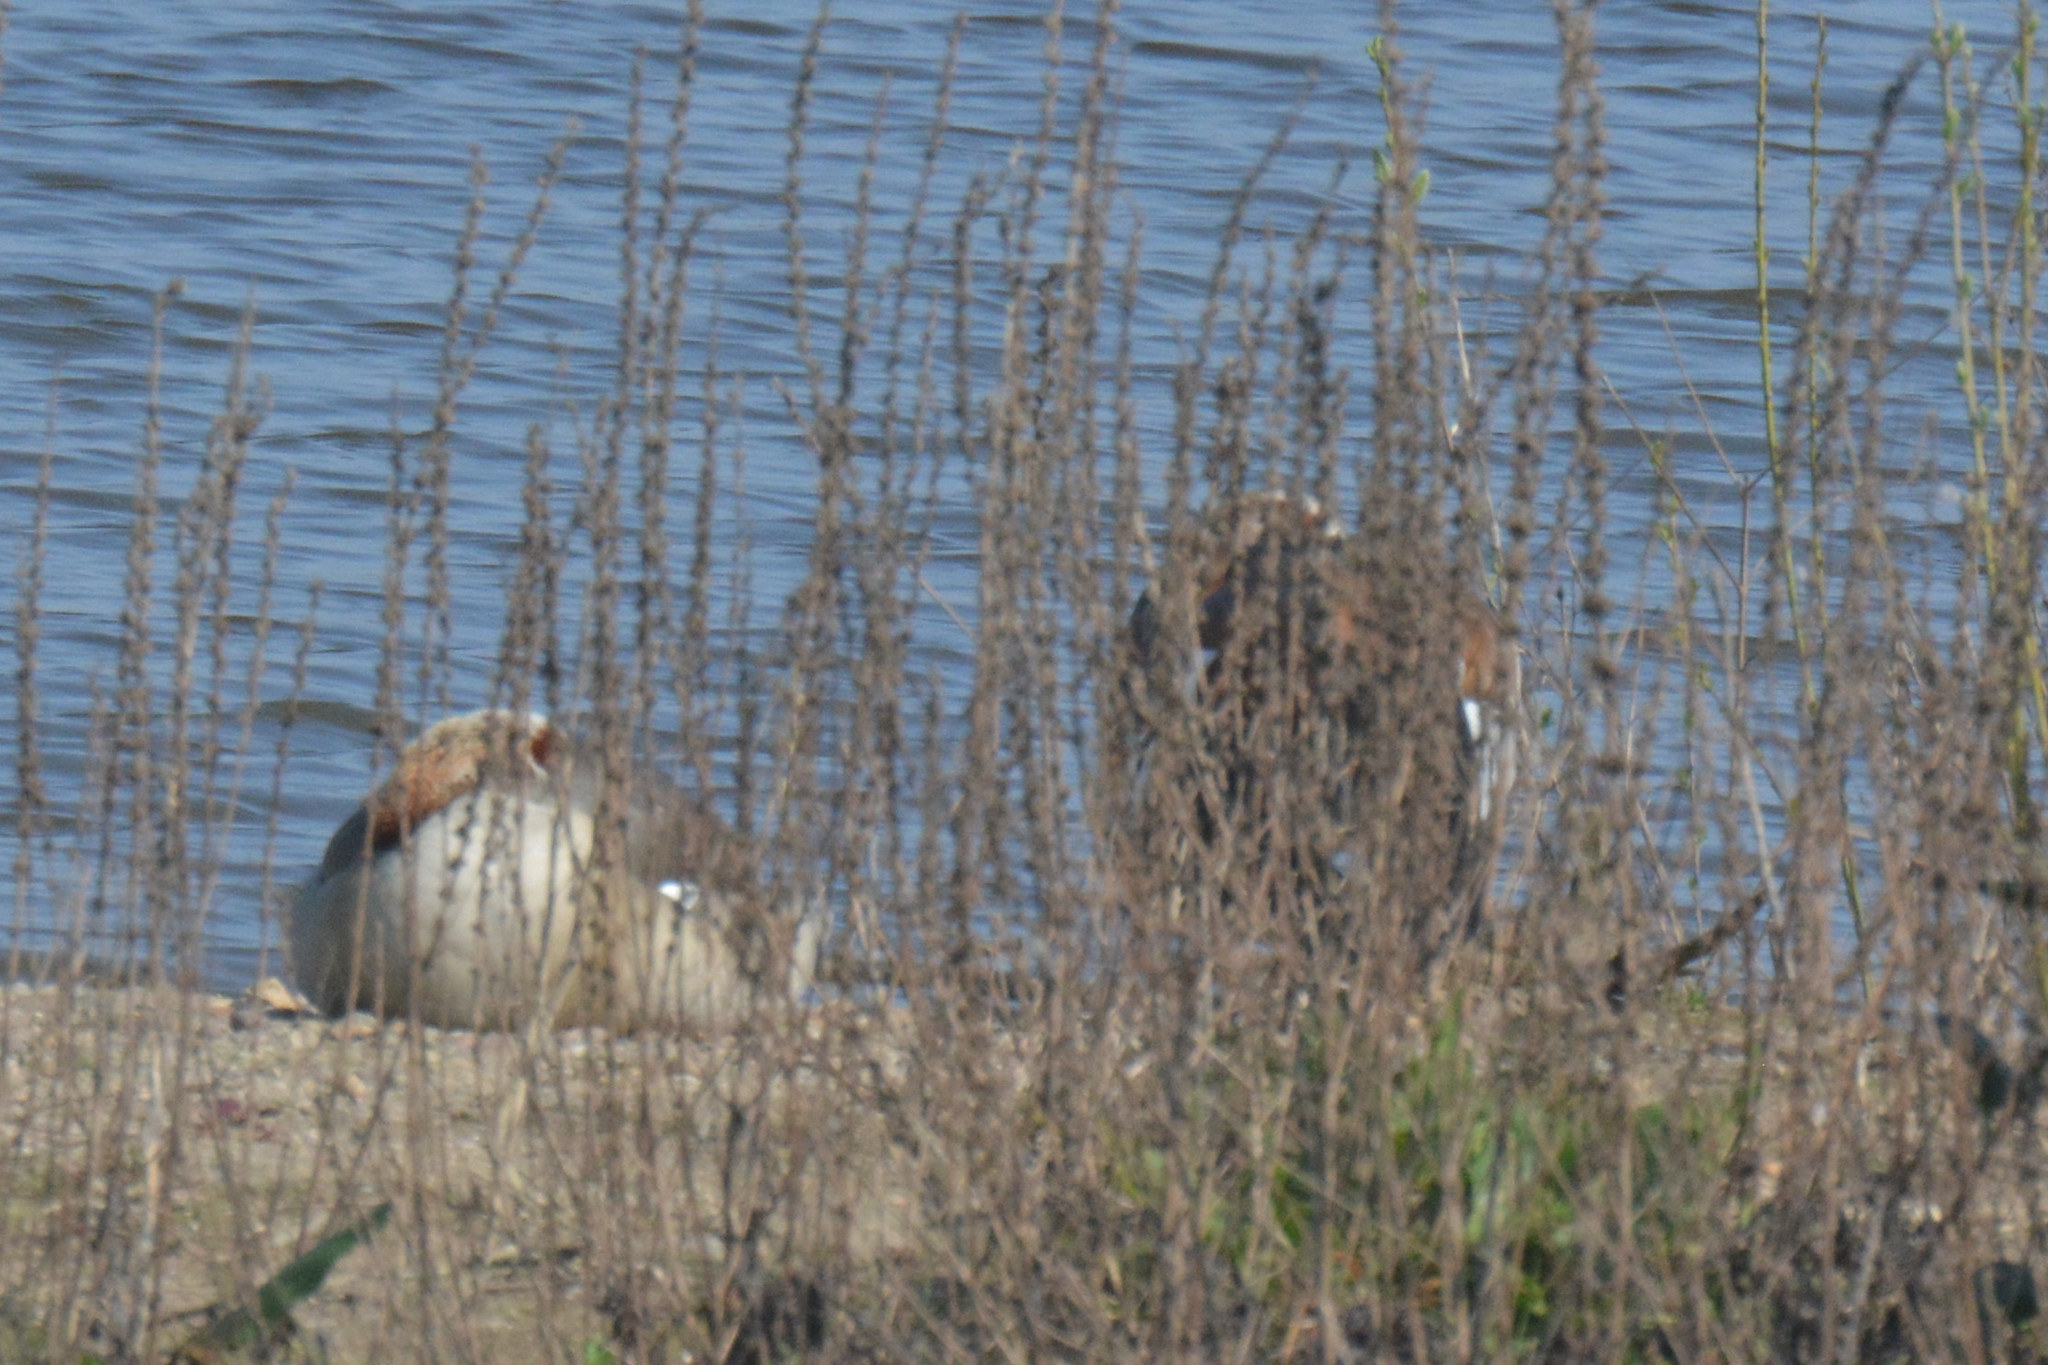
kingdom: Animalia
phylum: Chordata
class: Aves
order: Anseriformes
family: Anatidae
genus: Alopochen
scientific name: Alopochen aegyptiaca
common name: Egyptian goose
